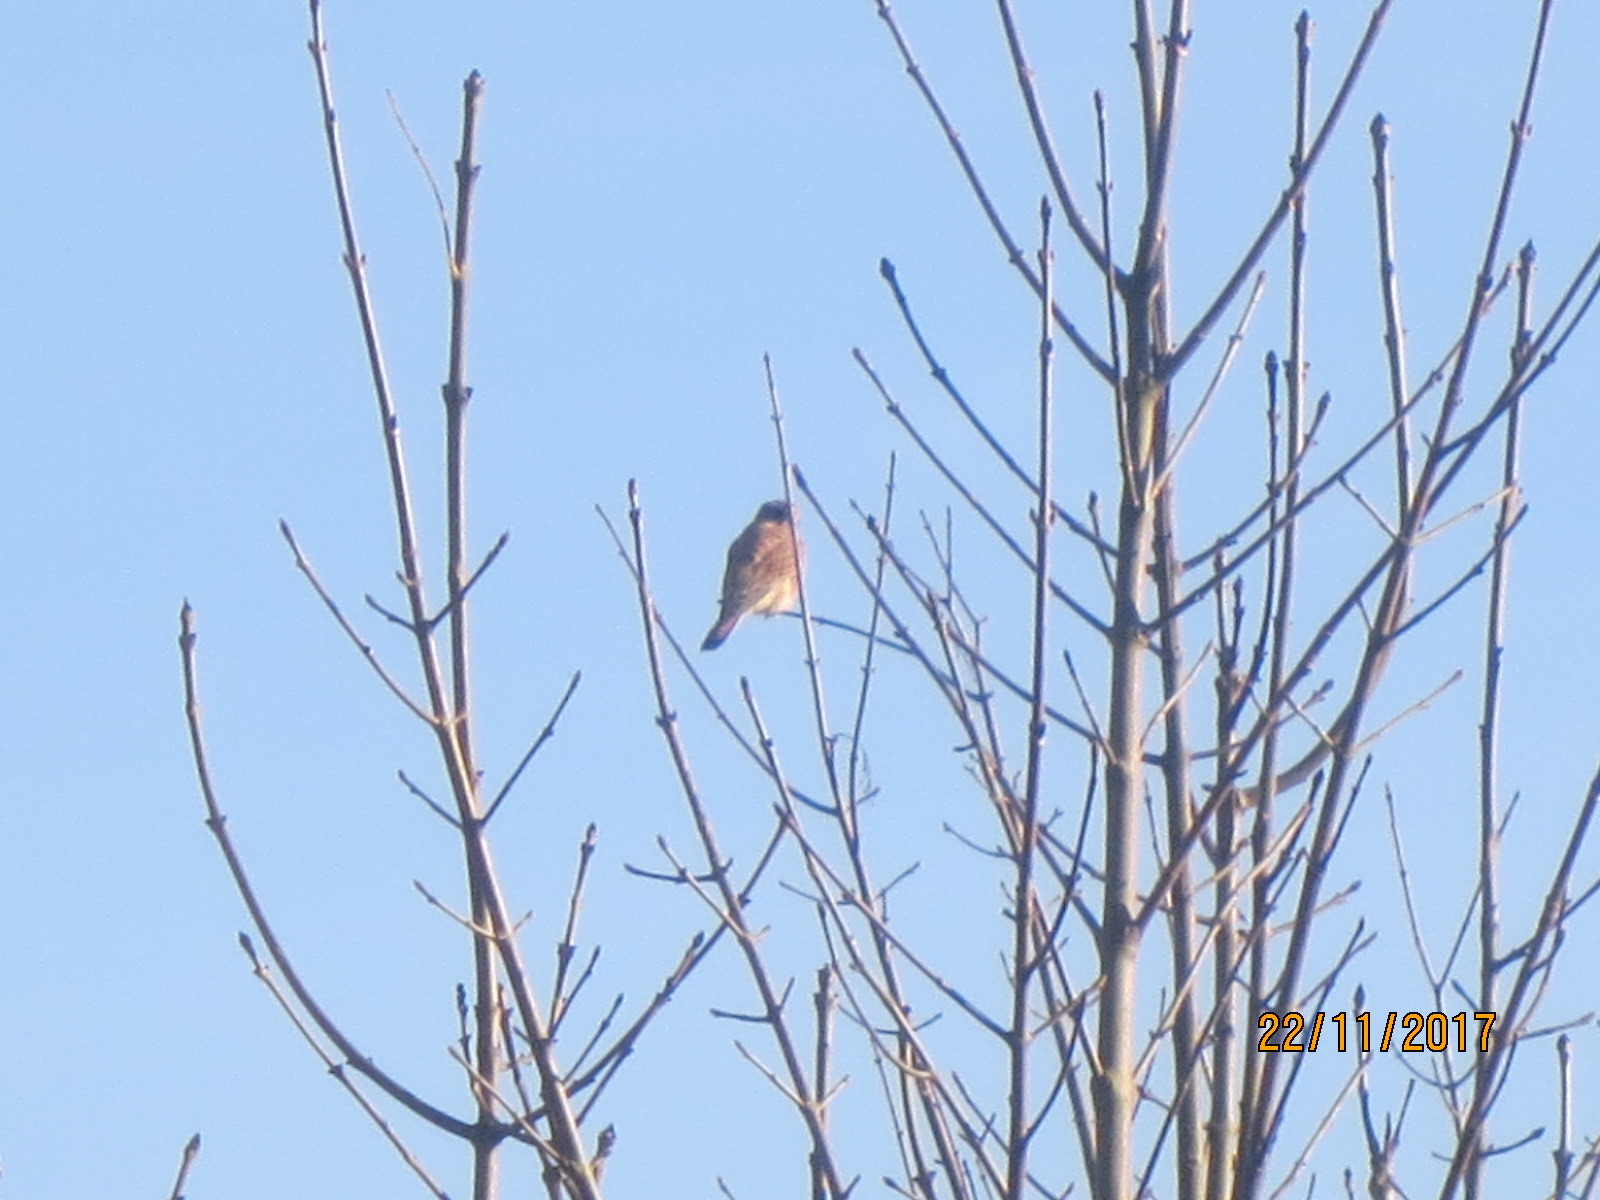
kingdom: Animalia
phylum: Chordata
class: Aves
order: Falconiformes
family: Falconidae
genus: Falco
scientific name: Falco tinnunculus
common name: Common kestrel
